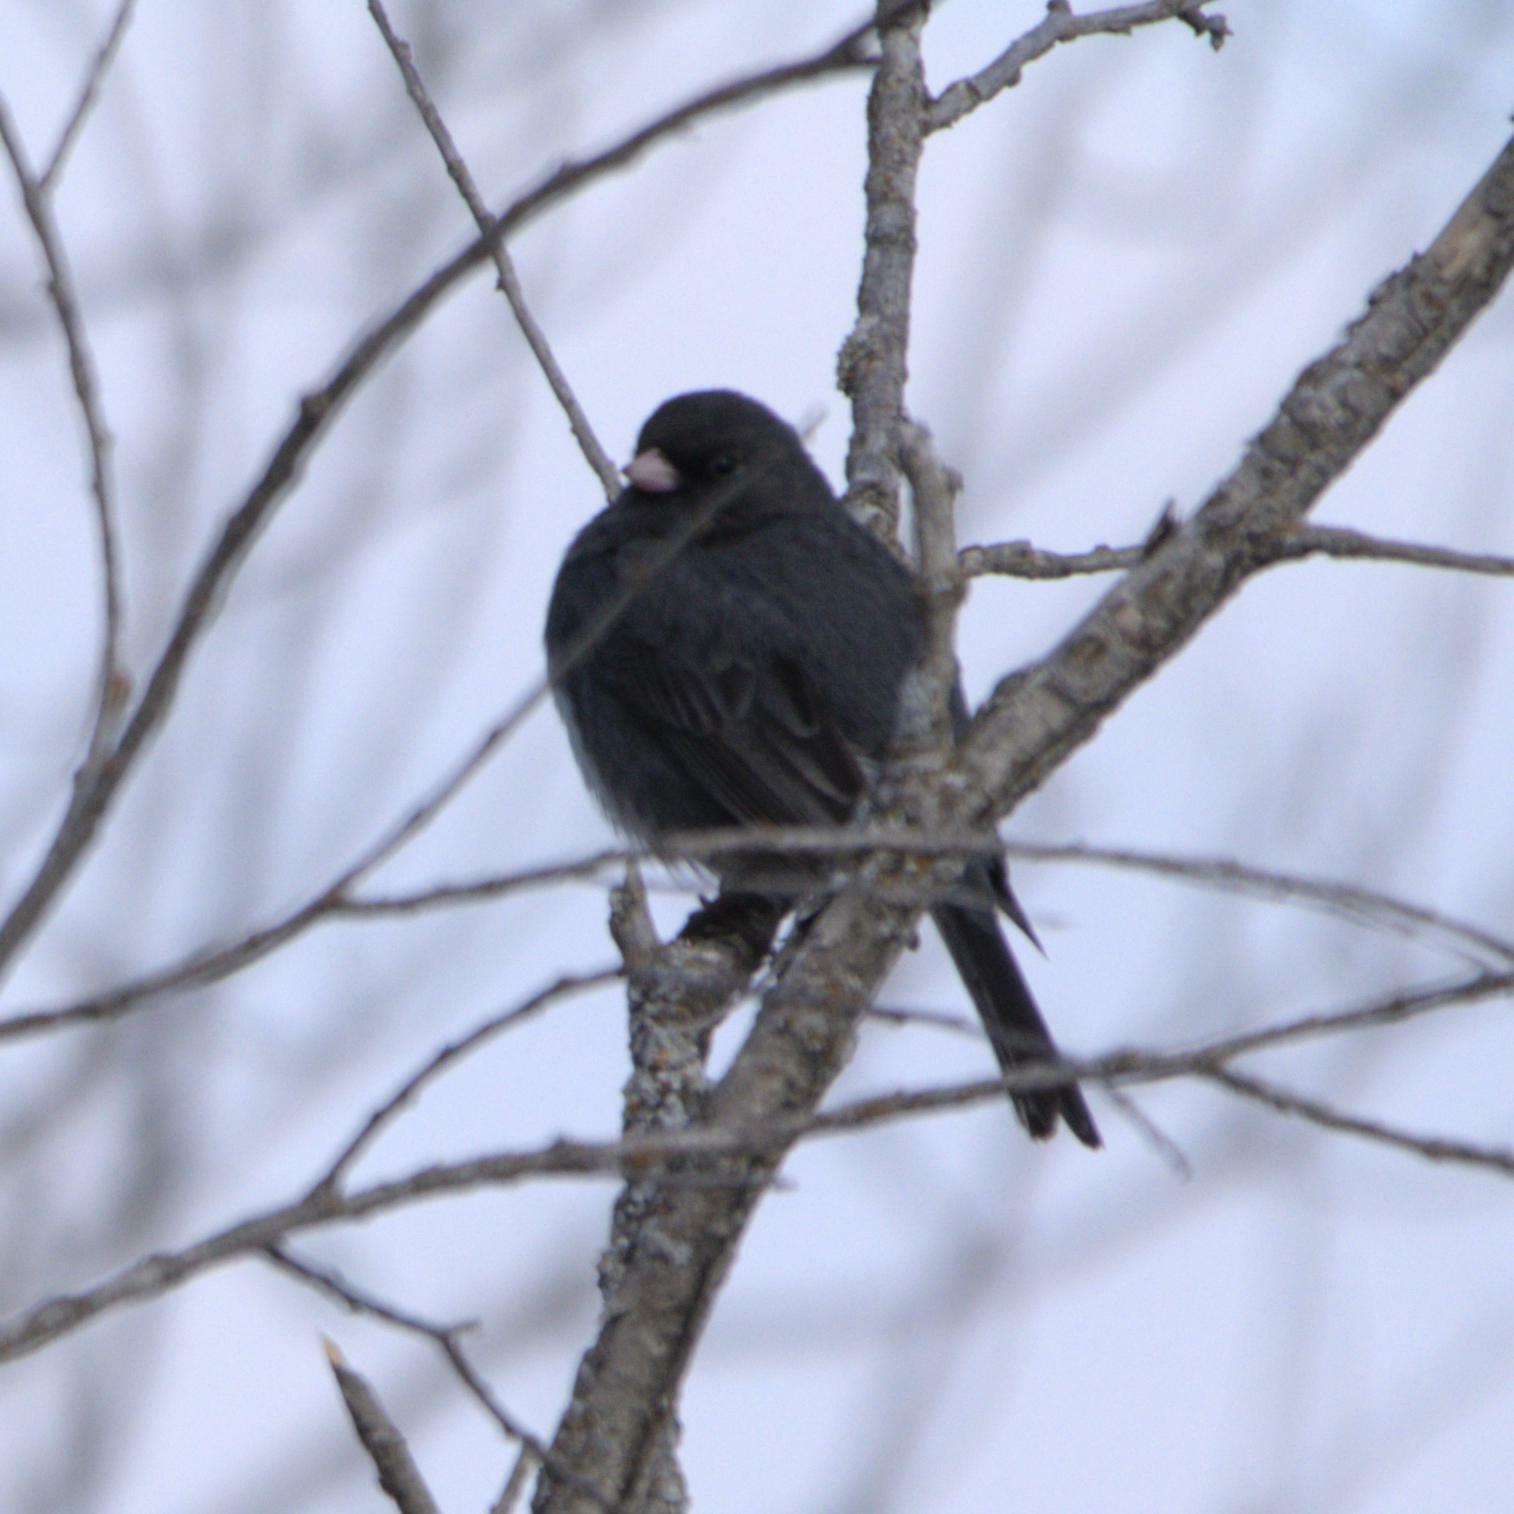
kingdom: Animalia
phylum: Chordata
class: Aves
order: Passeriformes
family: Passerellidae
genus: Junco
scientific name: Junco hyemalis
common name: Dark-eyed junco
